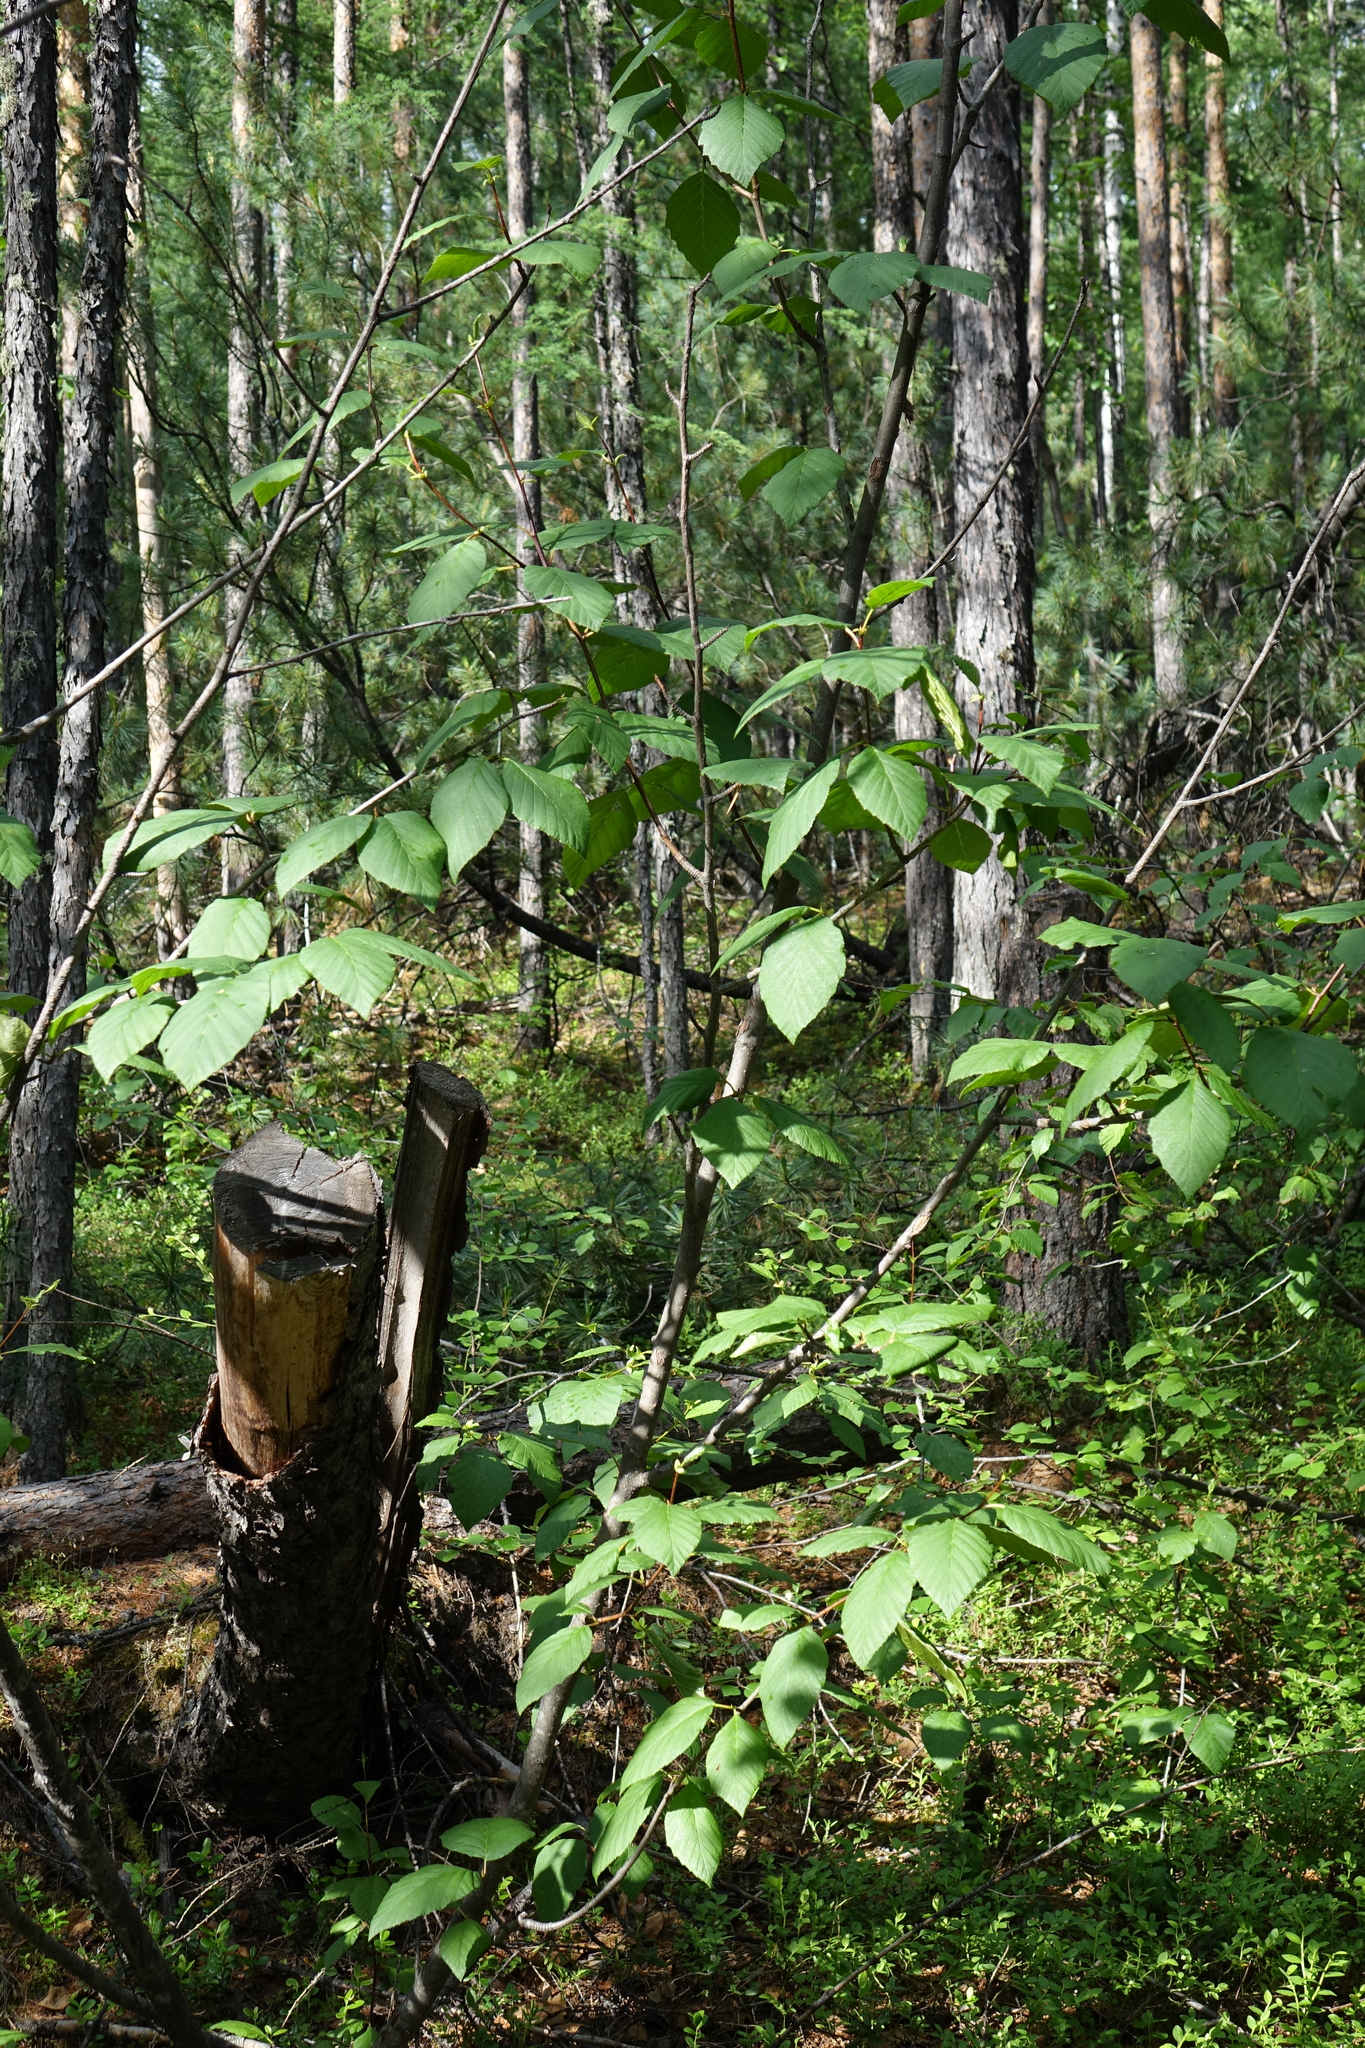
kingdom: Plantae
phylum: Tracheophyta
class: Magnoliopsida
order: Fagales
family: Betulaceae
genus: Alnus
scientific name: Alnus alnobetula
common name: Green alder
